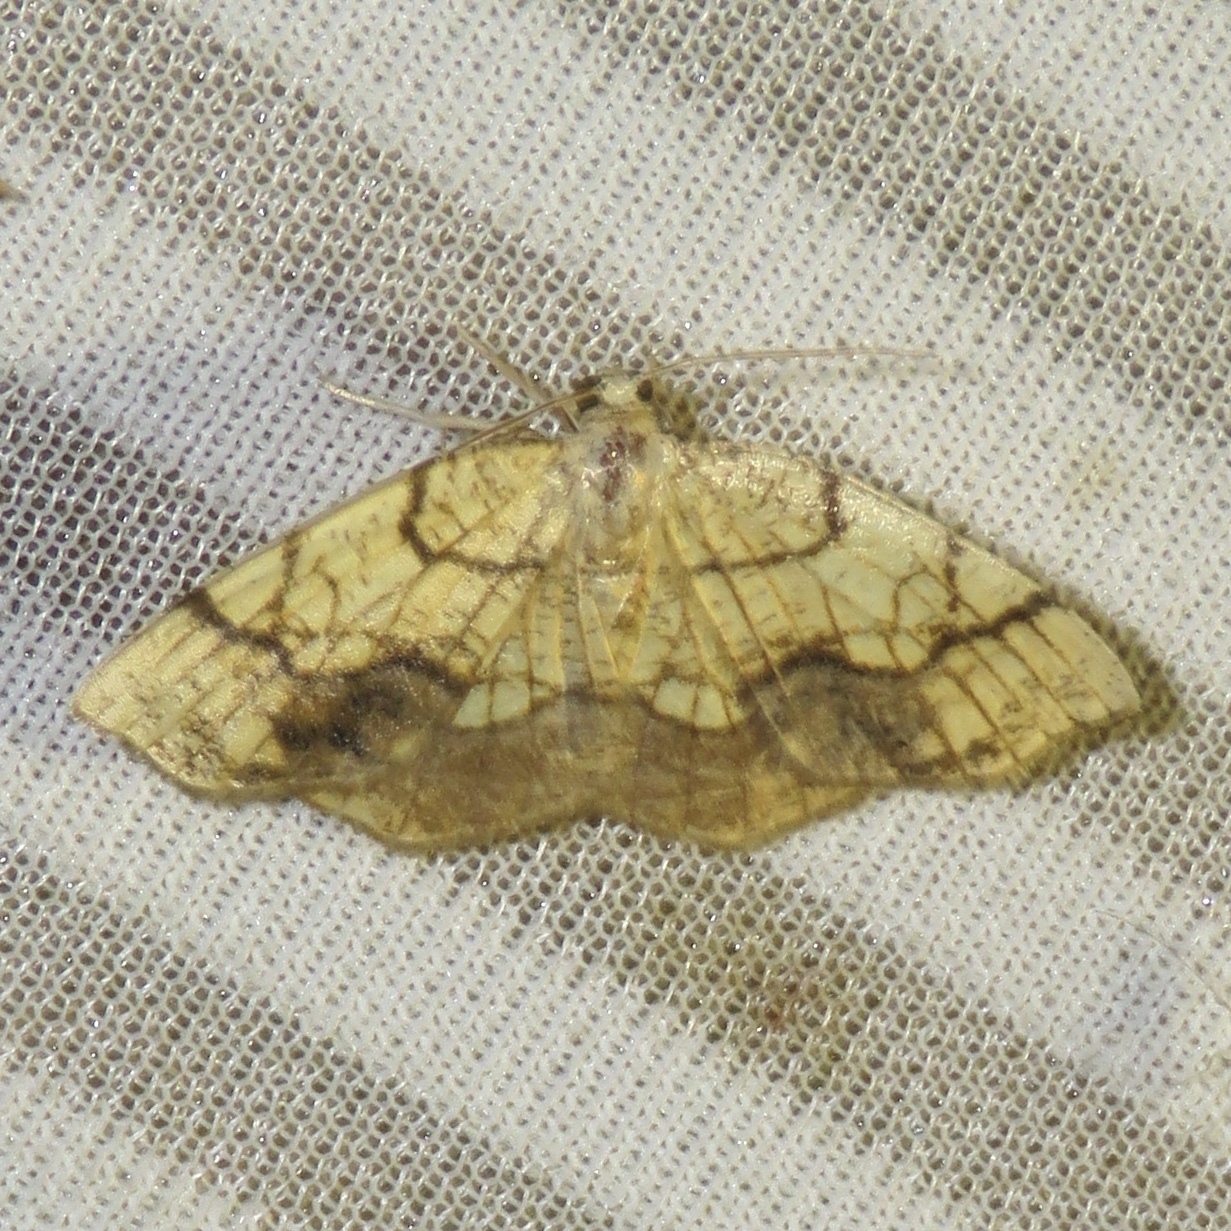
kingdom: Animalia
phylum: Arthropoda
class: Insecta
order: Lepidoptera
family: Geometridae
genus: Nematocampa
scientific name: Nematocampa resistaria
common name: Horned spanworm moth
